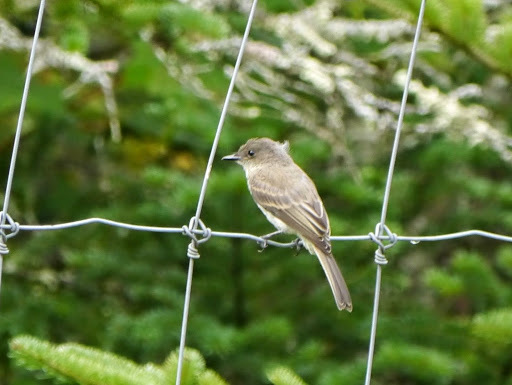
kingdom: Animalia
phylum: Chordata
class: Aves
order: Passeriformes
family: Tyrannidae
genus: Sayornis
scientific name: Sayornis phoebe
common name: Eastern phoebe
